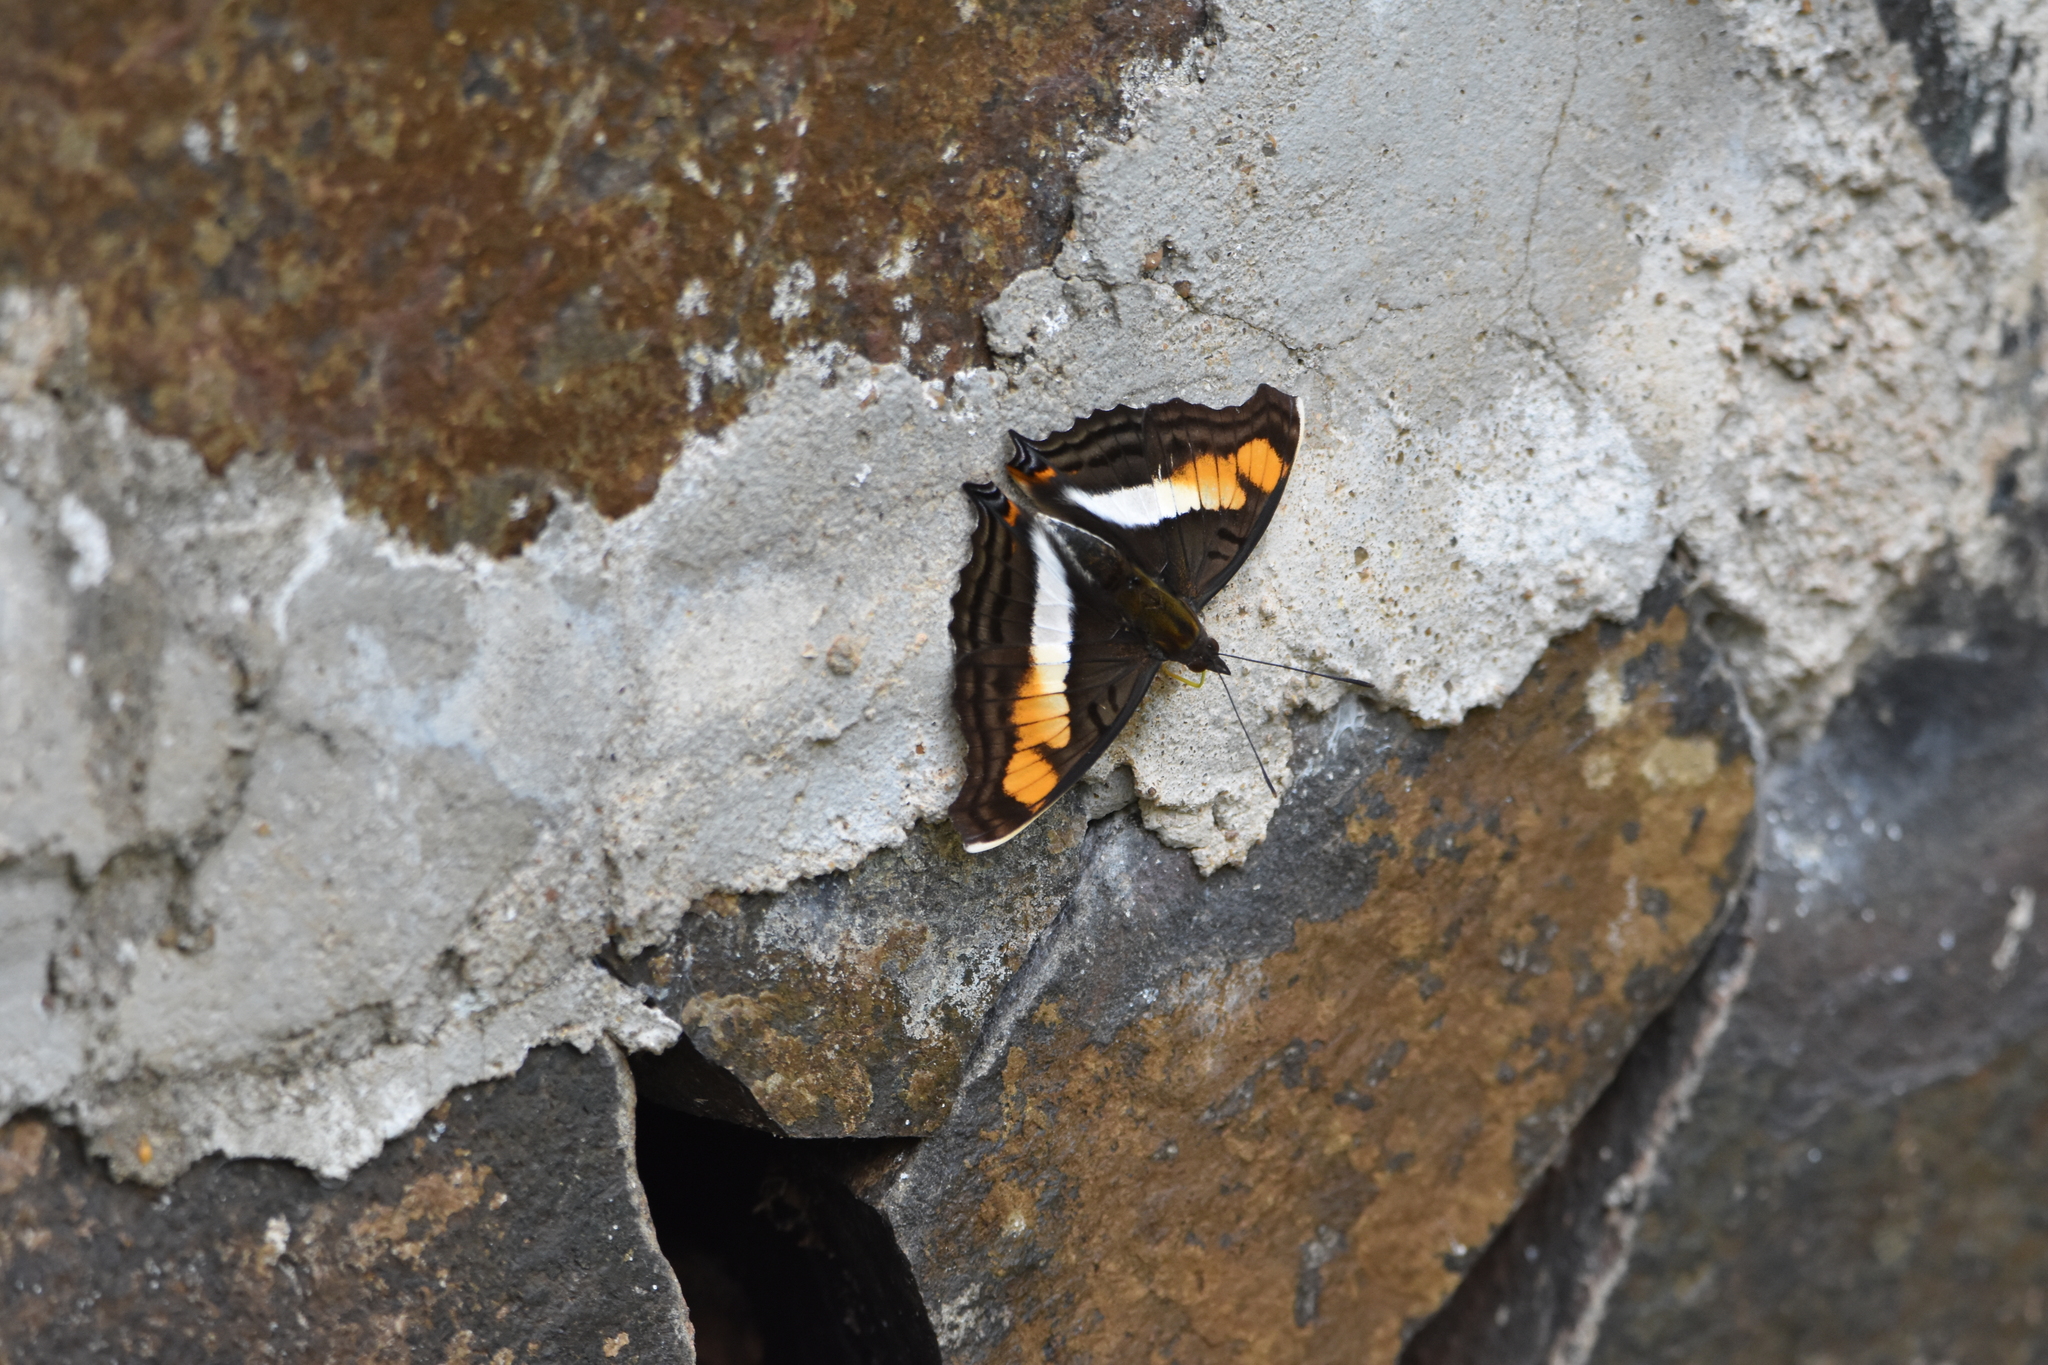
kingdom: Animalia
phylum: Arthropoda
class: Insecta
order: Lepidoptera
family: Nymphalidae
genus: Doxocopa
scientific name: Doxocopa linda
